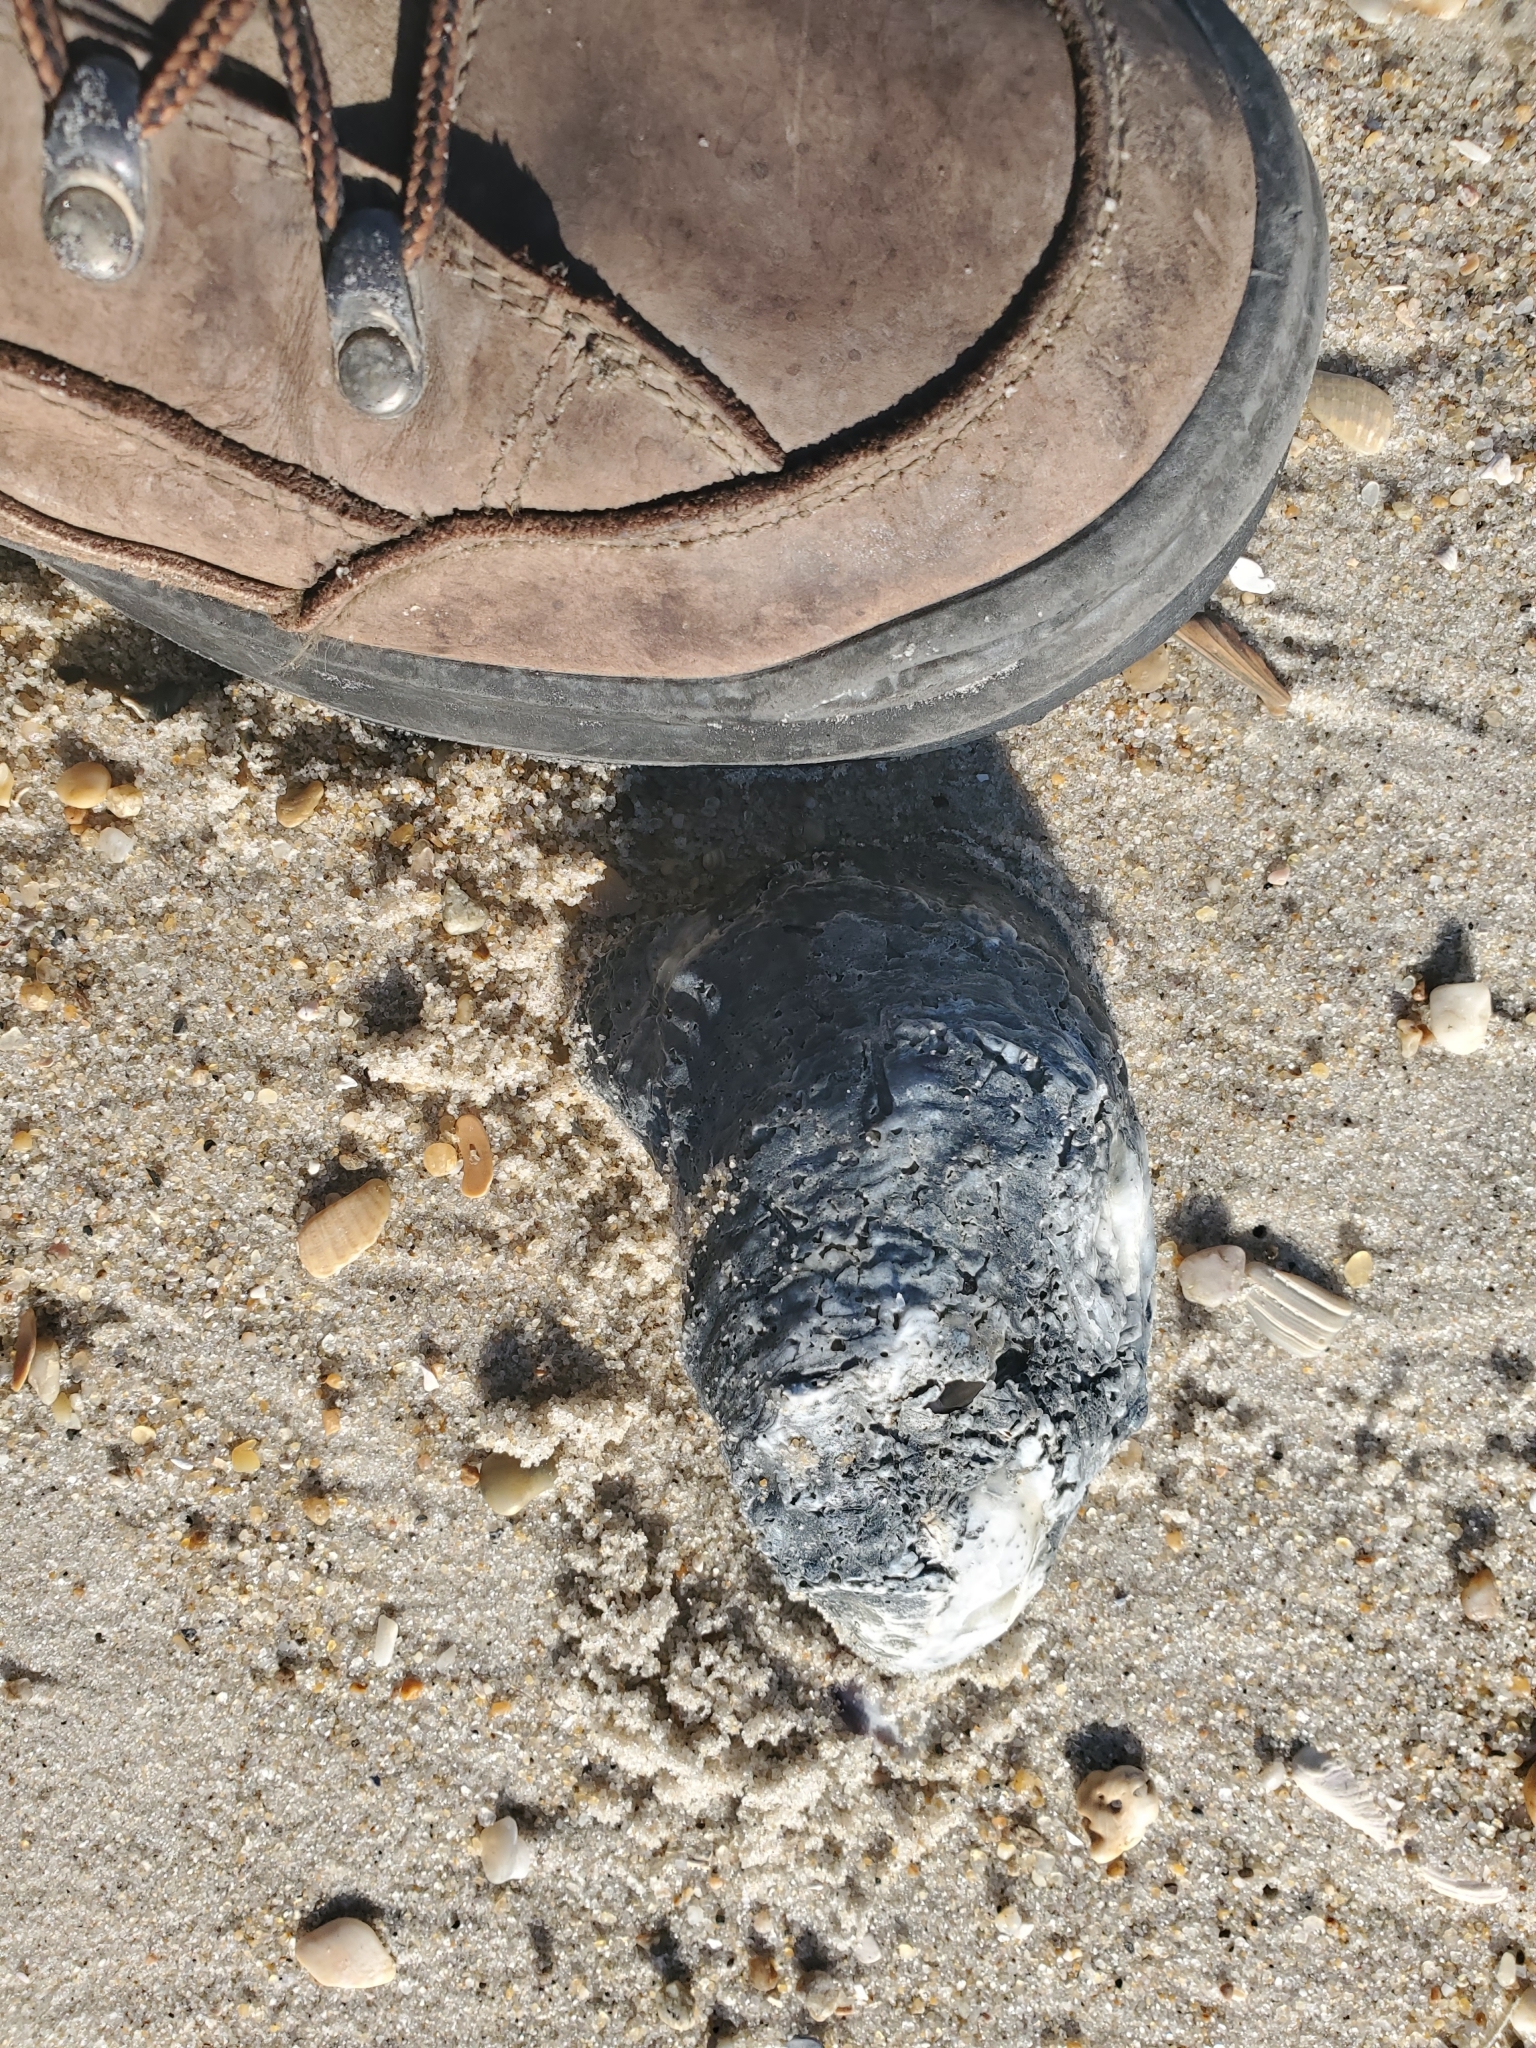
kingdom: Animalia
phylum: Mollusca
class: Bivalvia
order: Ostreida
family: Ostreidae
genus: Crassostrea
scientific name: Crassostrea virginica
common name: American oyster
